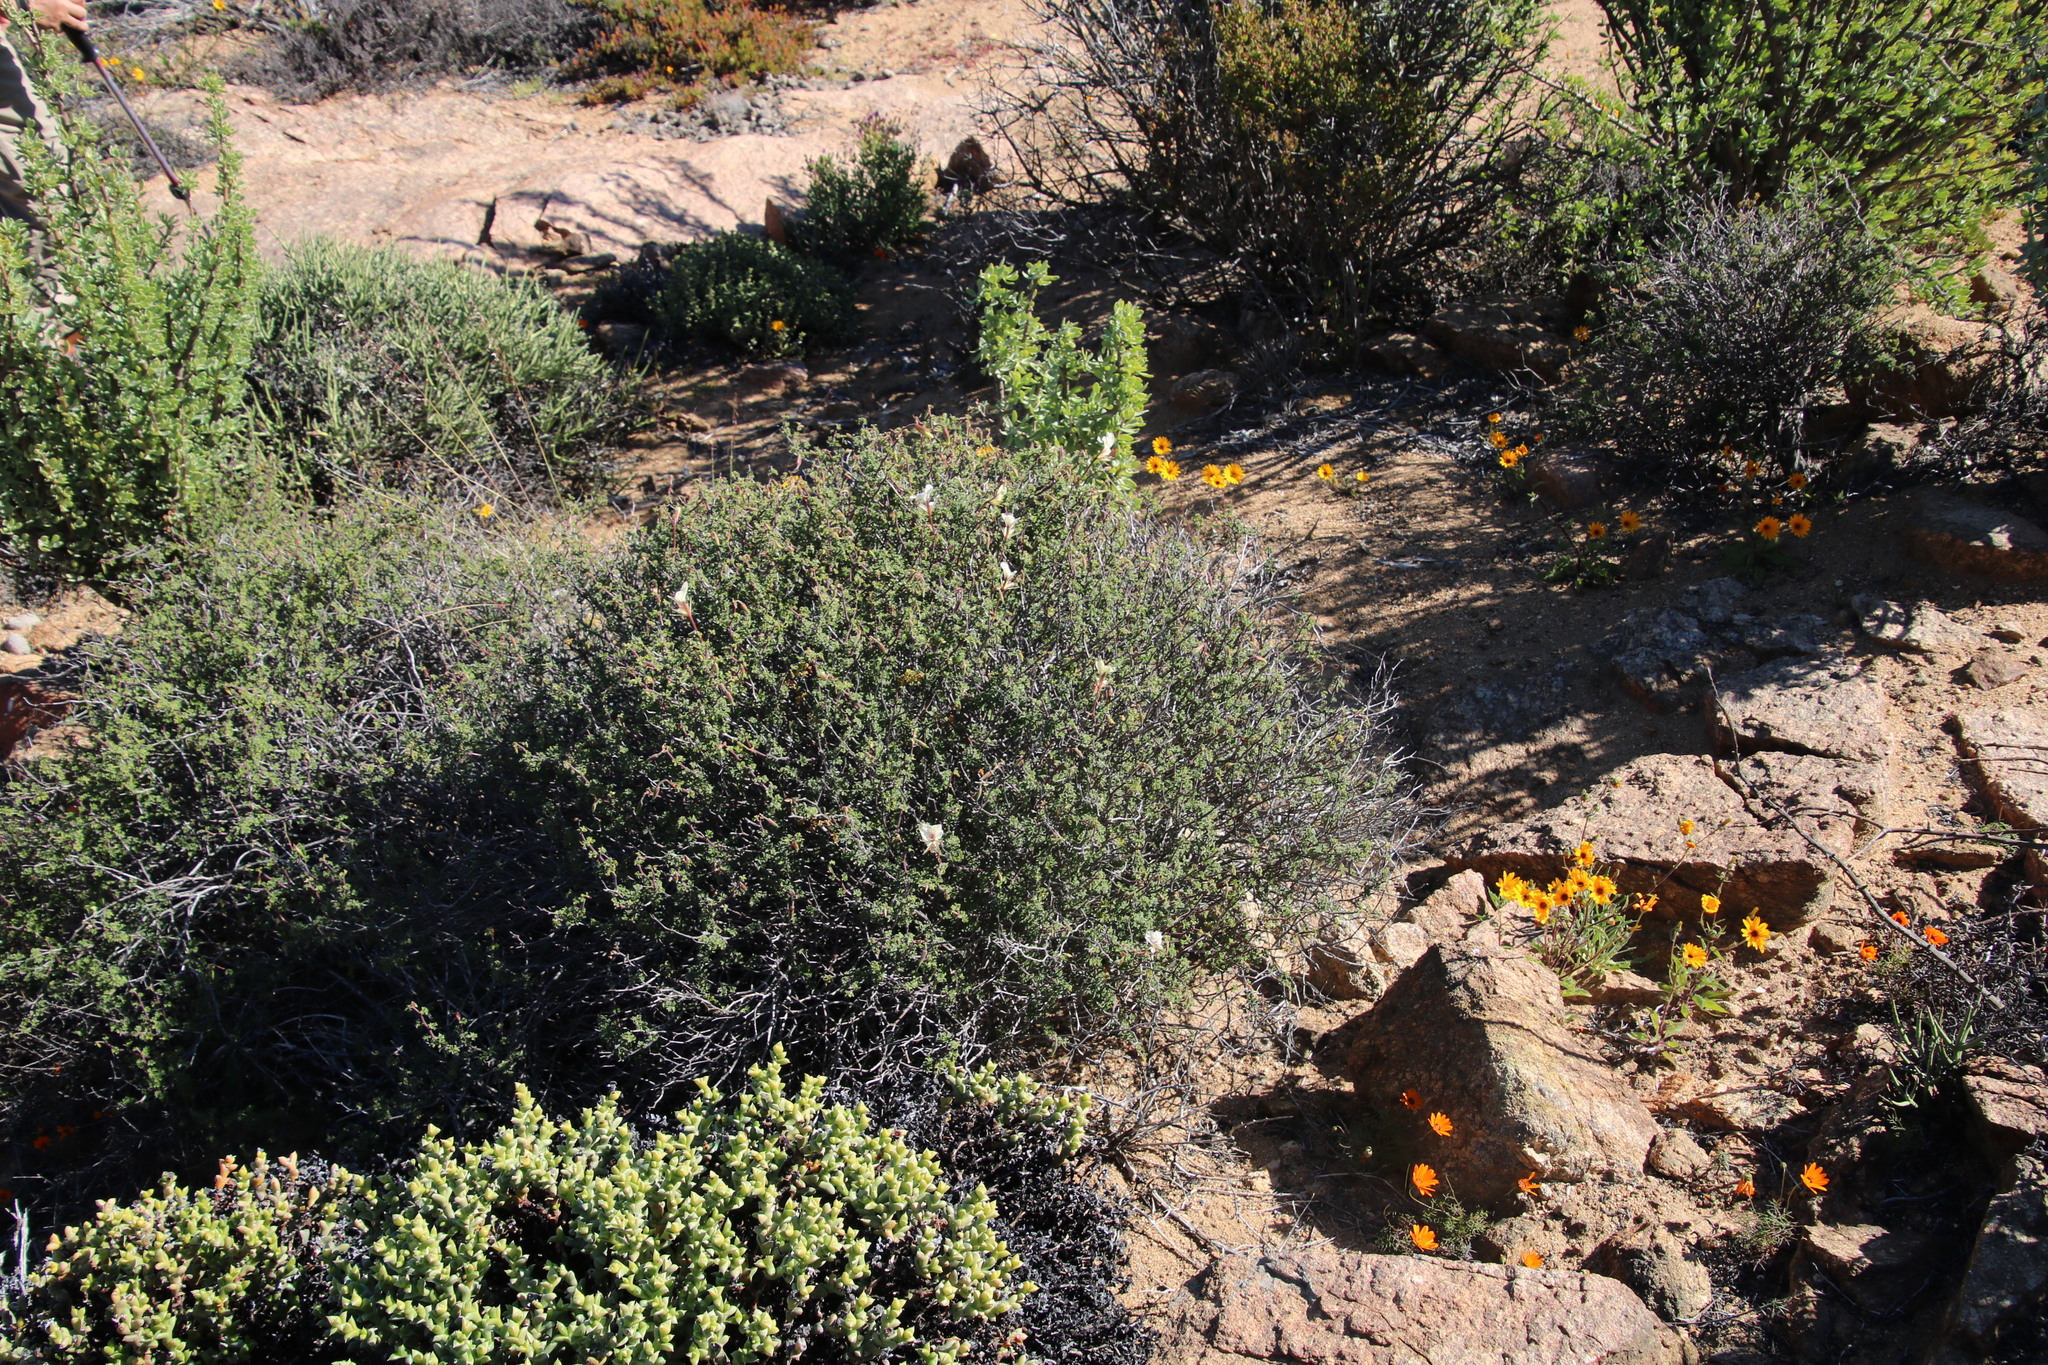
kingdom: Plantae
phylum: Tracheophyta
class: Magnoliopsida
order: Geraniales
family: Geraniaceae
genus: Pelargonium
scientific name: Pelargonium praemorsum
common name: Quinate-leaf pelargonium
